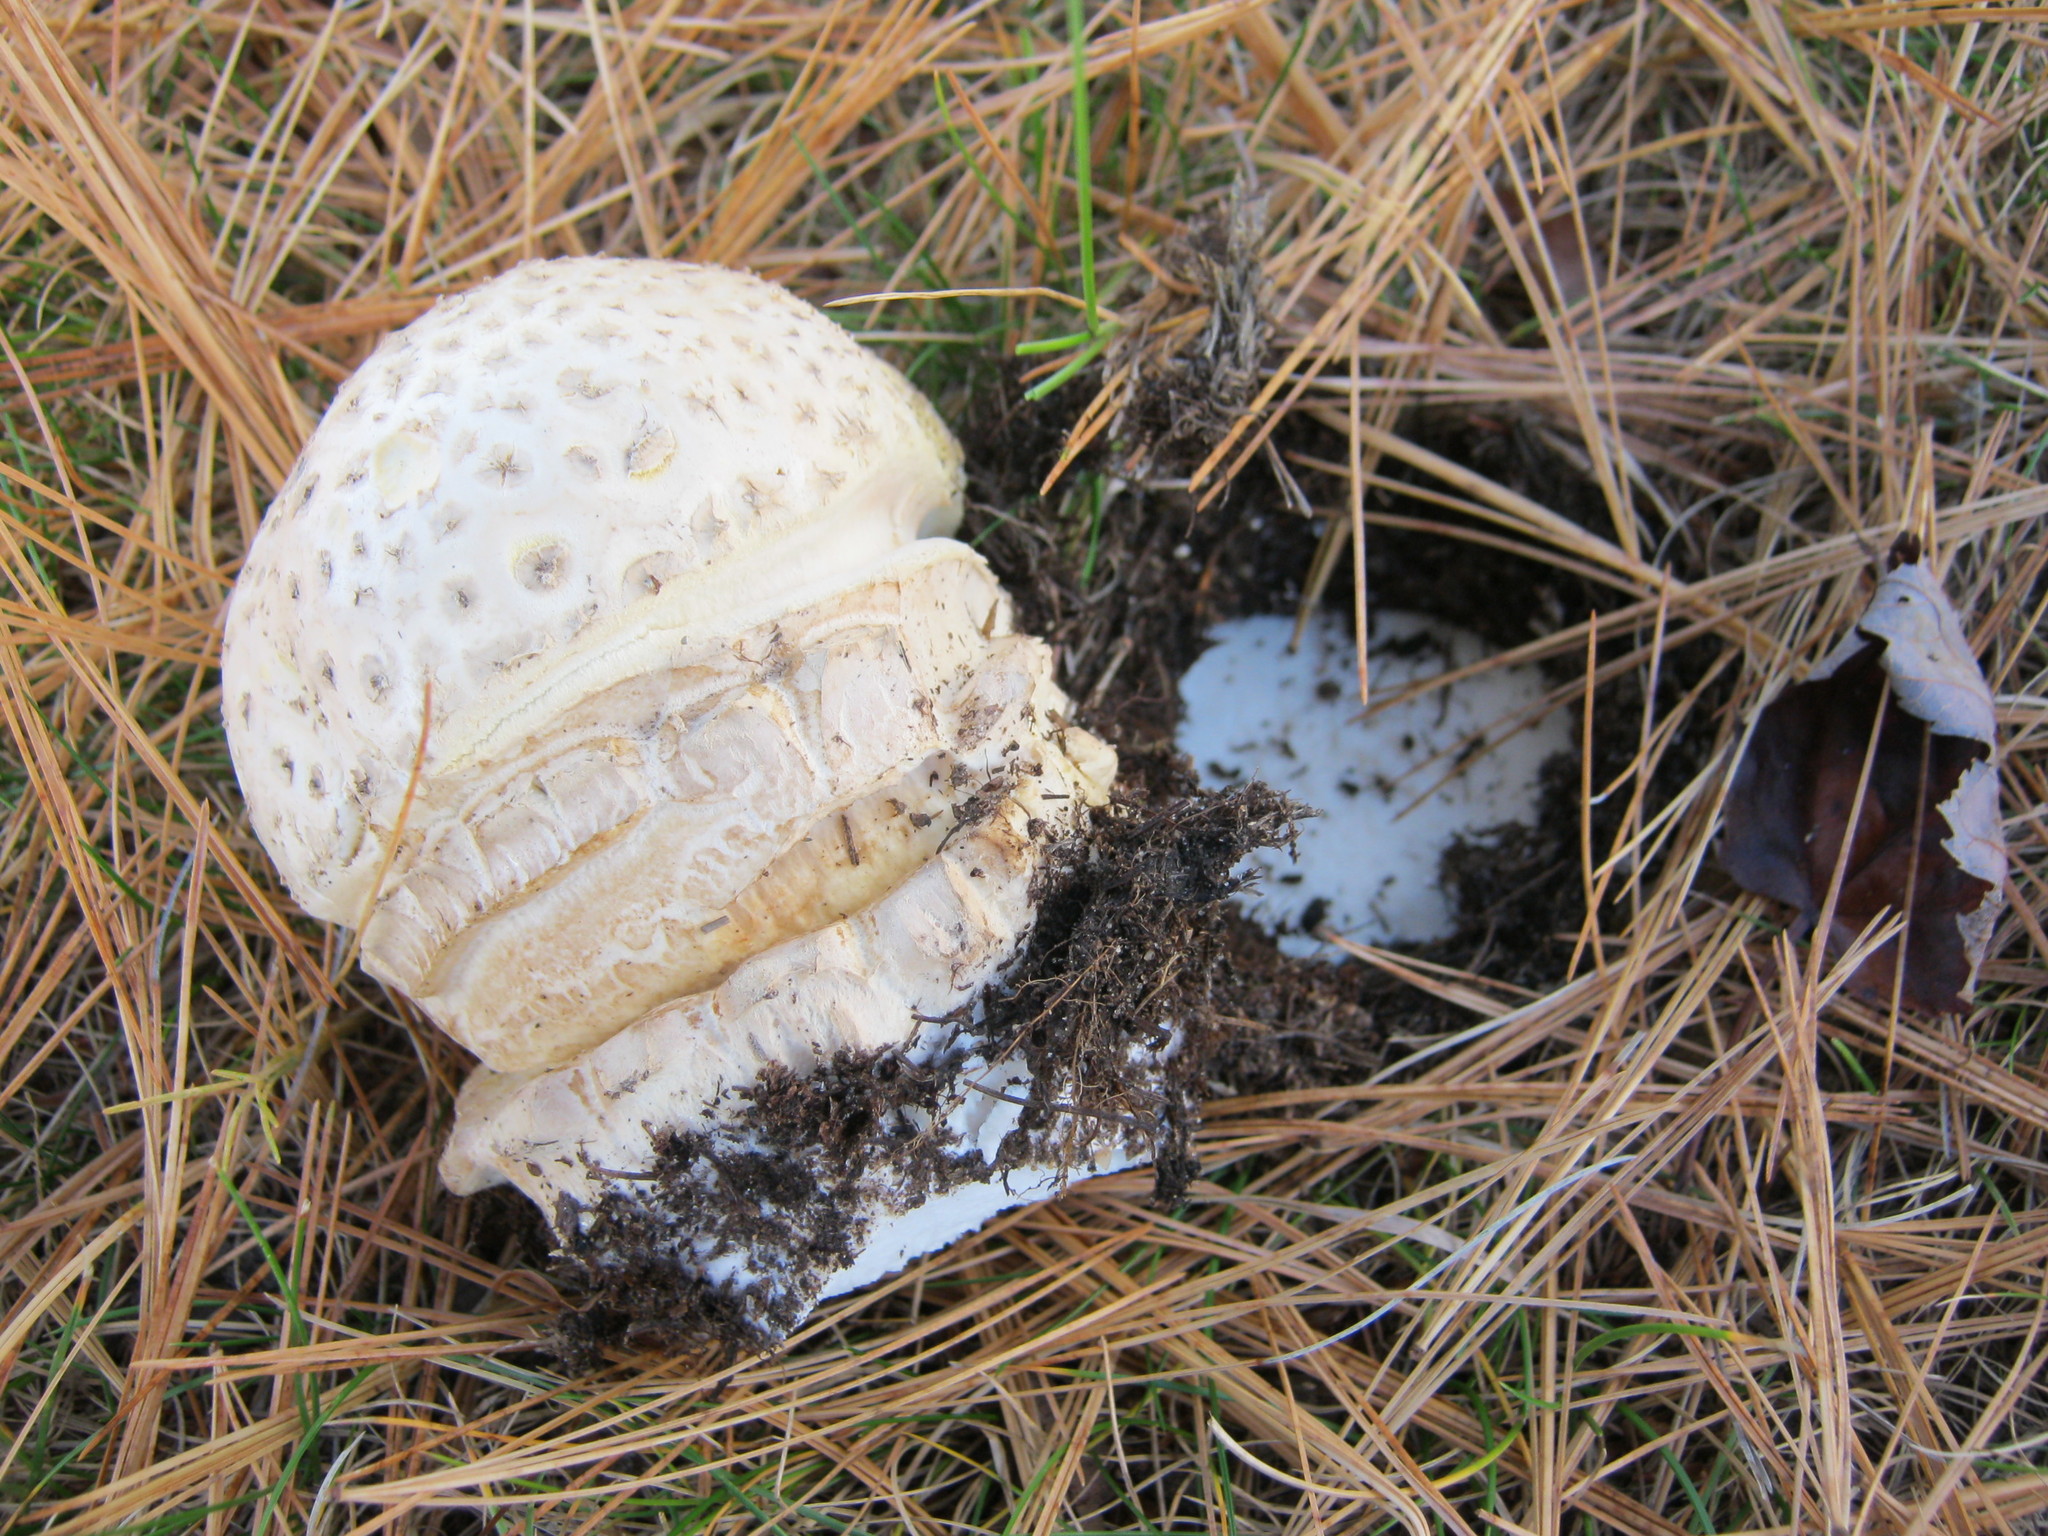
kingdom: Fungi
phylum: Basidiomycota
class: Agaricomycetes
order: Agaricales
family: Amanitaceae
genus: Amanita
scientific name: Amanita muscaria
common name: Fly agaric
